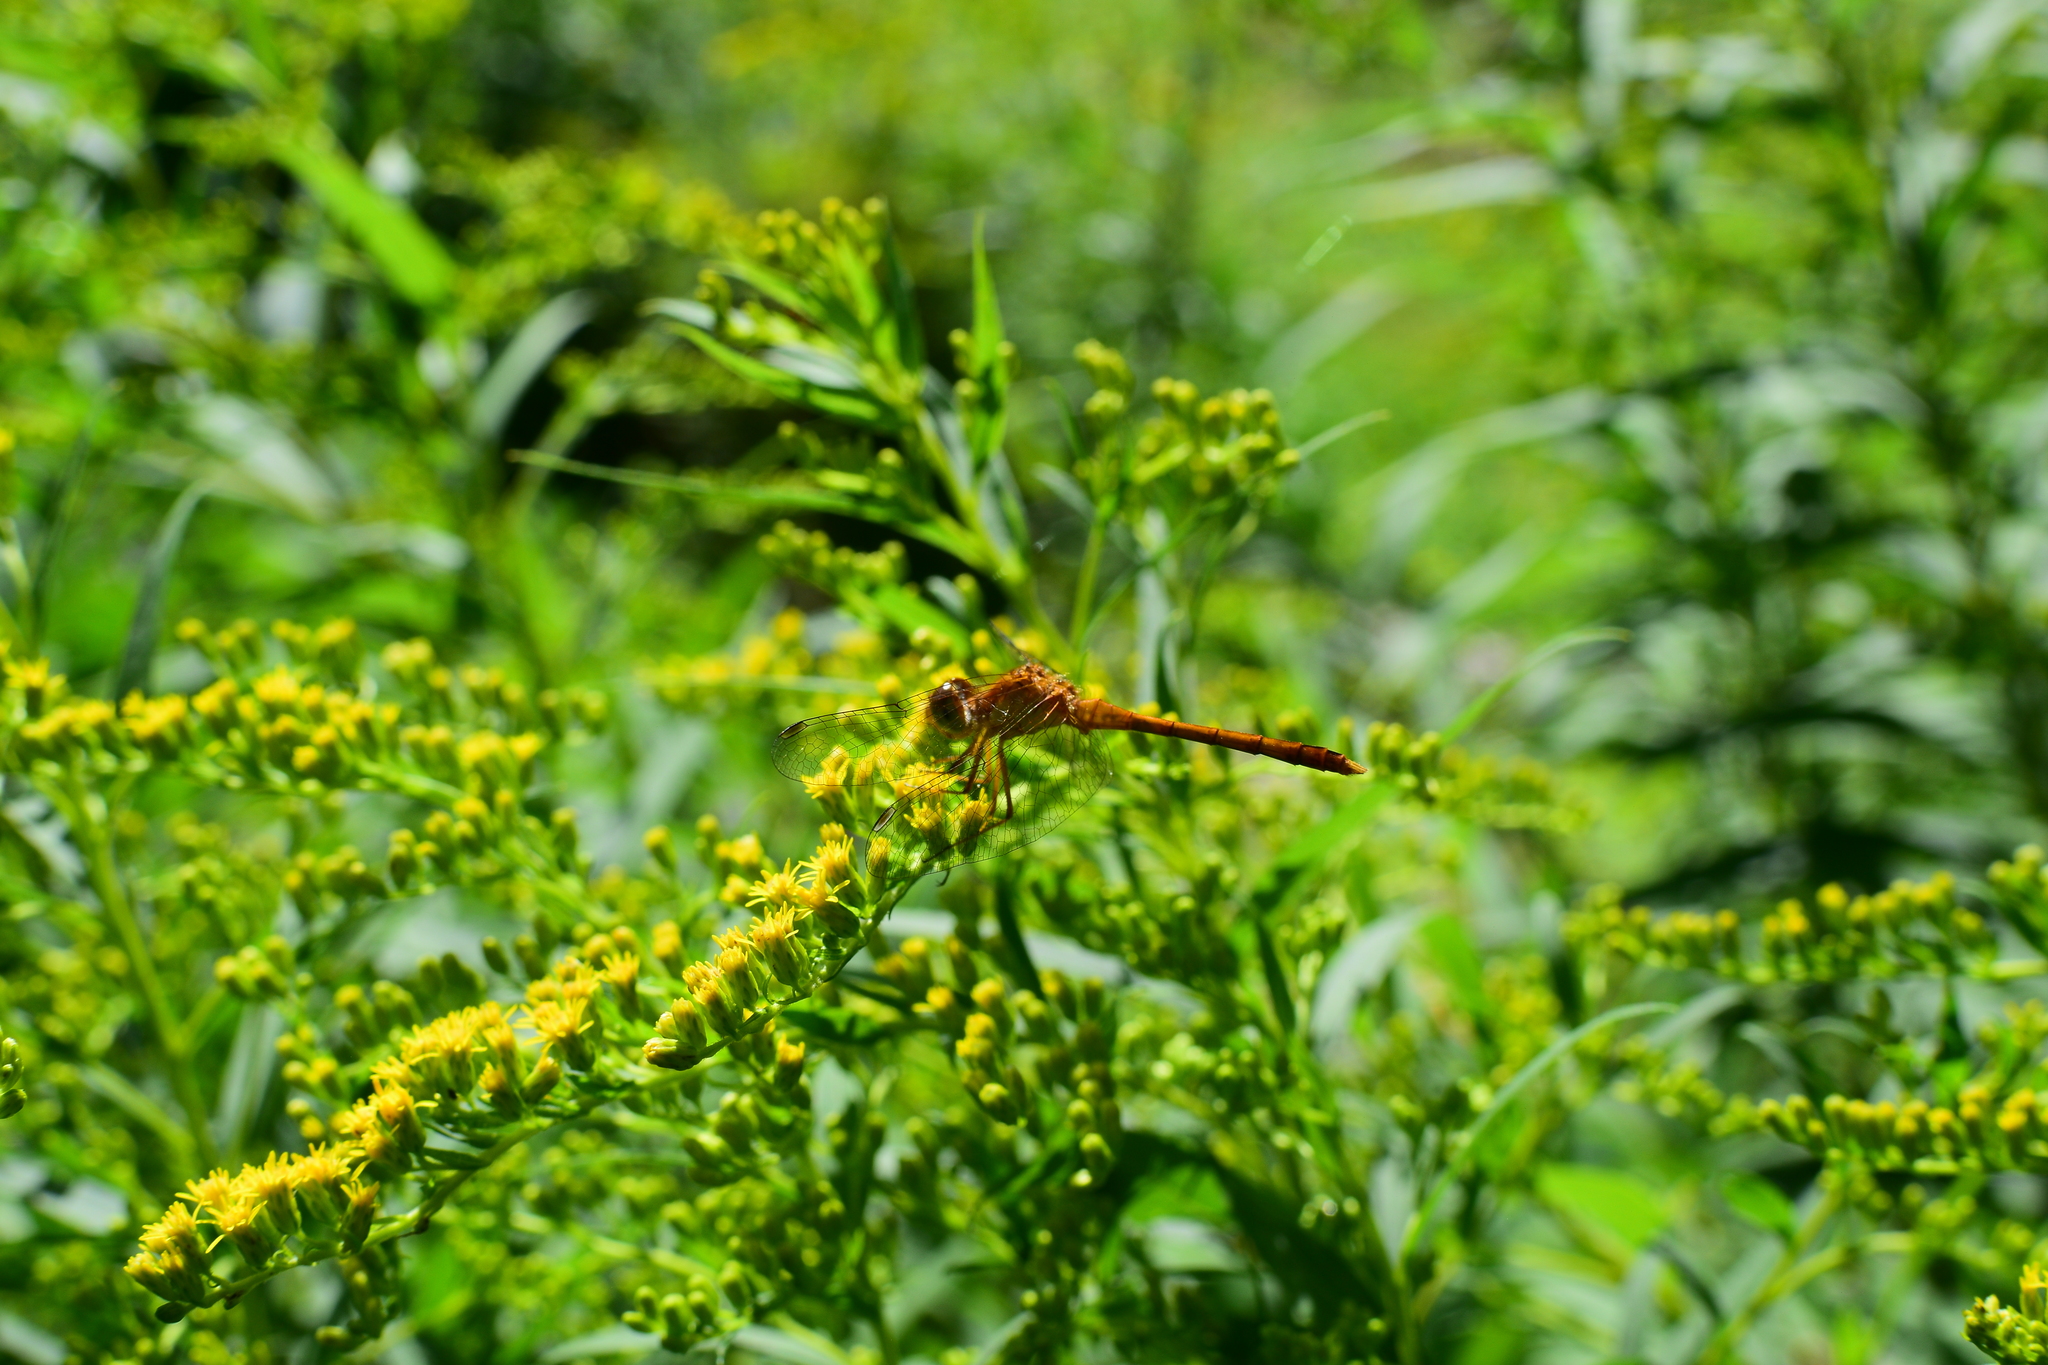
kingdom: Animalia
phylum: Arthropoda
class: Insecta
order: Odonata
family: Libellulidae
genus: Sympetrum
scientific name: Sympetrum vicinum
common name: Autumn meadowhawk
